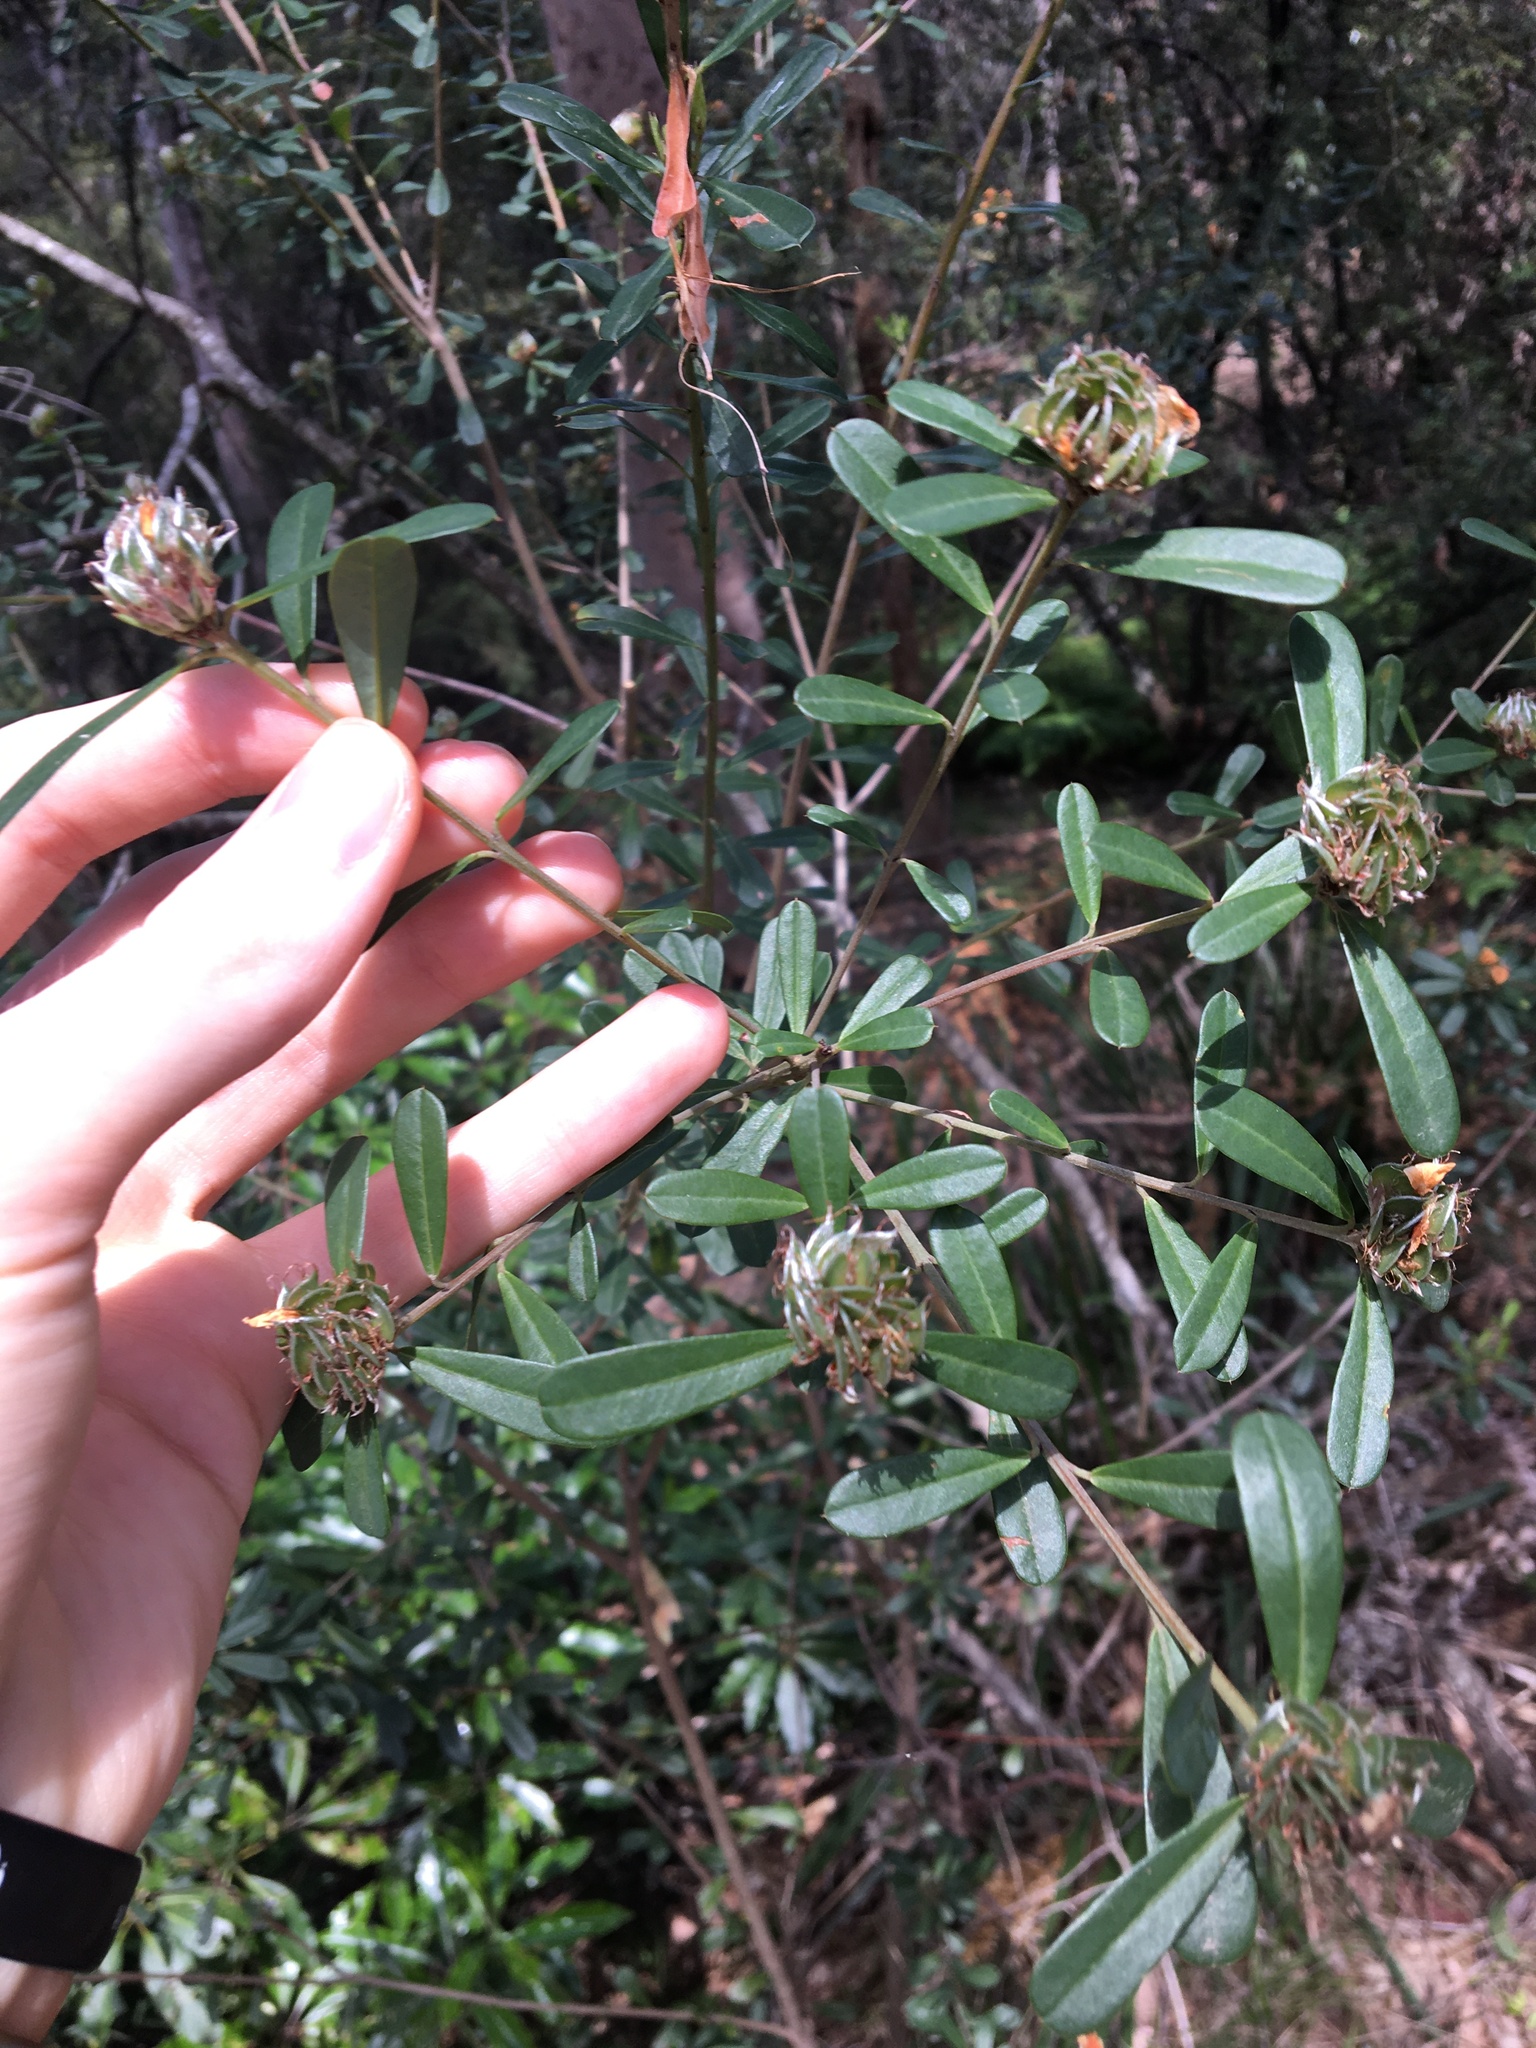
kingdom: Plantae
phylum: Tracheophyta
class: Magnoliopsida
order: Fabales
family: Fabaceae
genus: Pultenaea
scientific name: Pultenaea daphnoides
